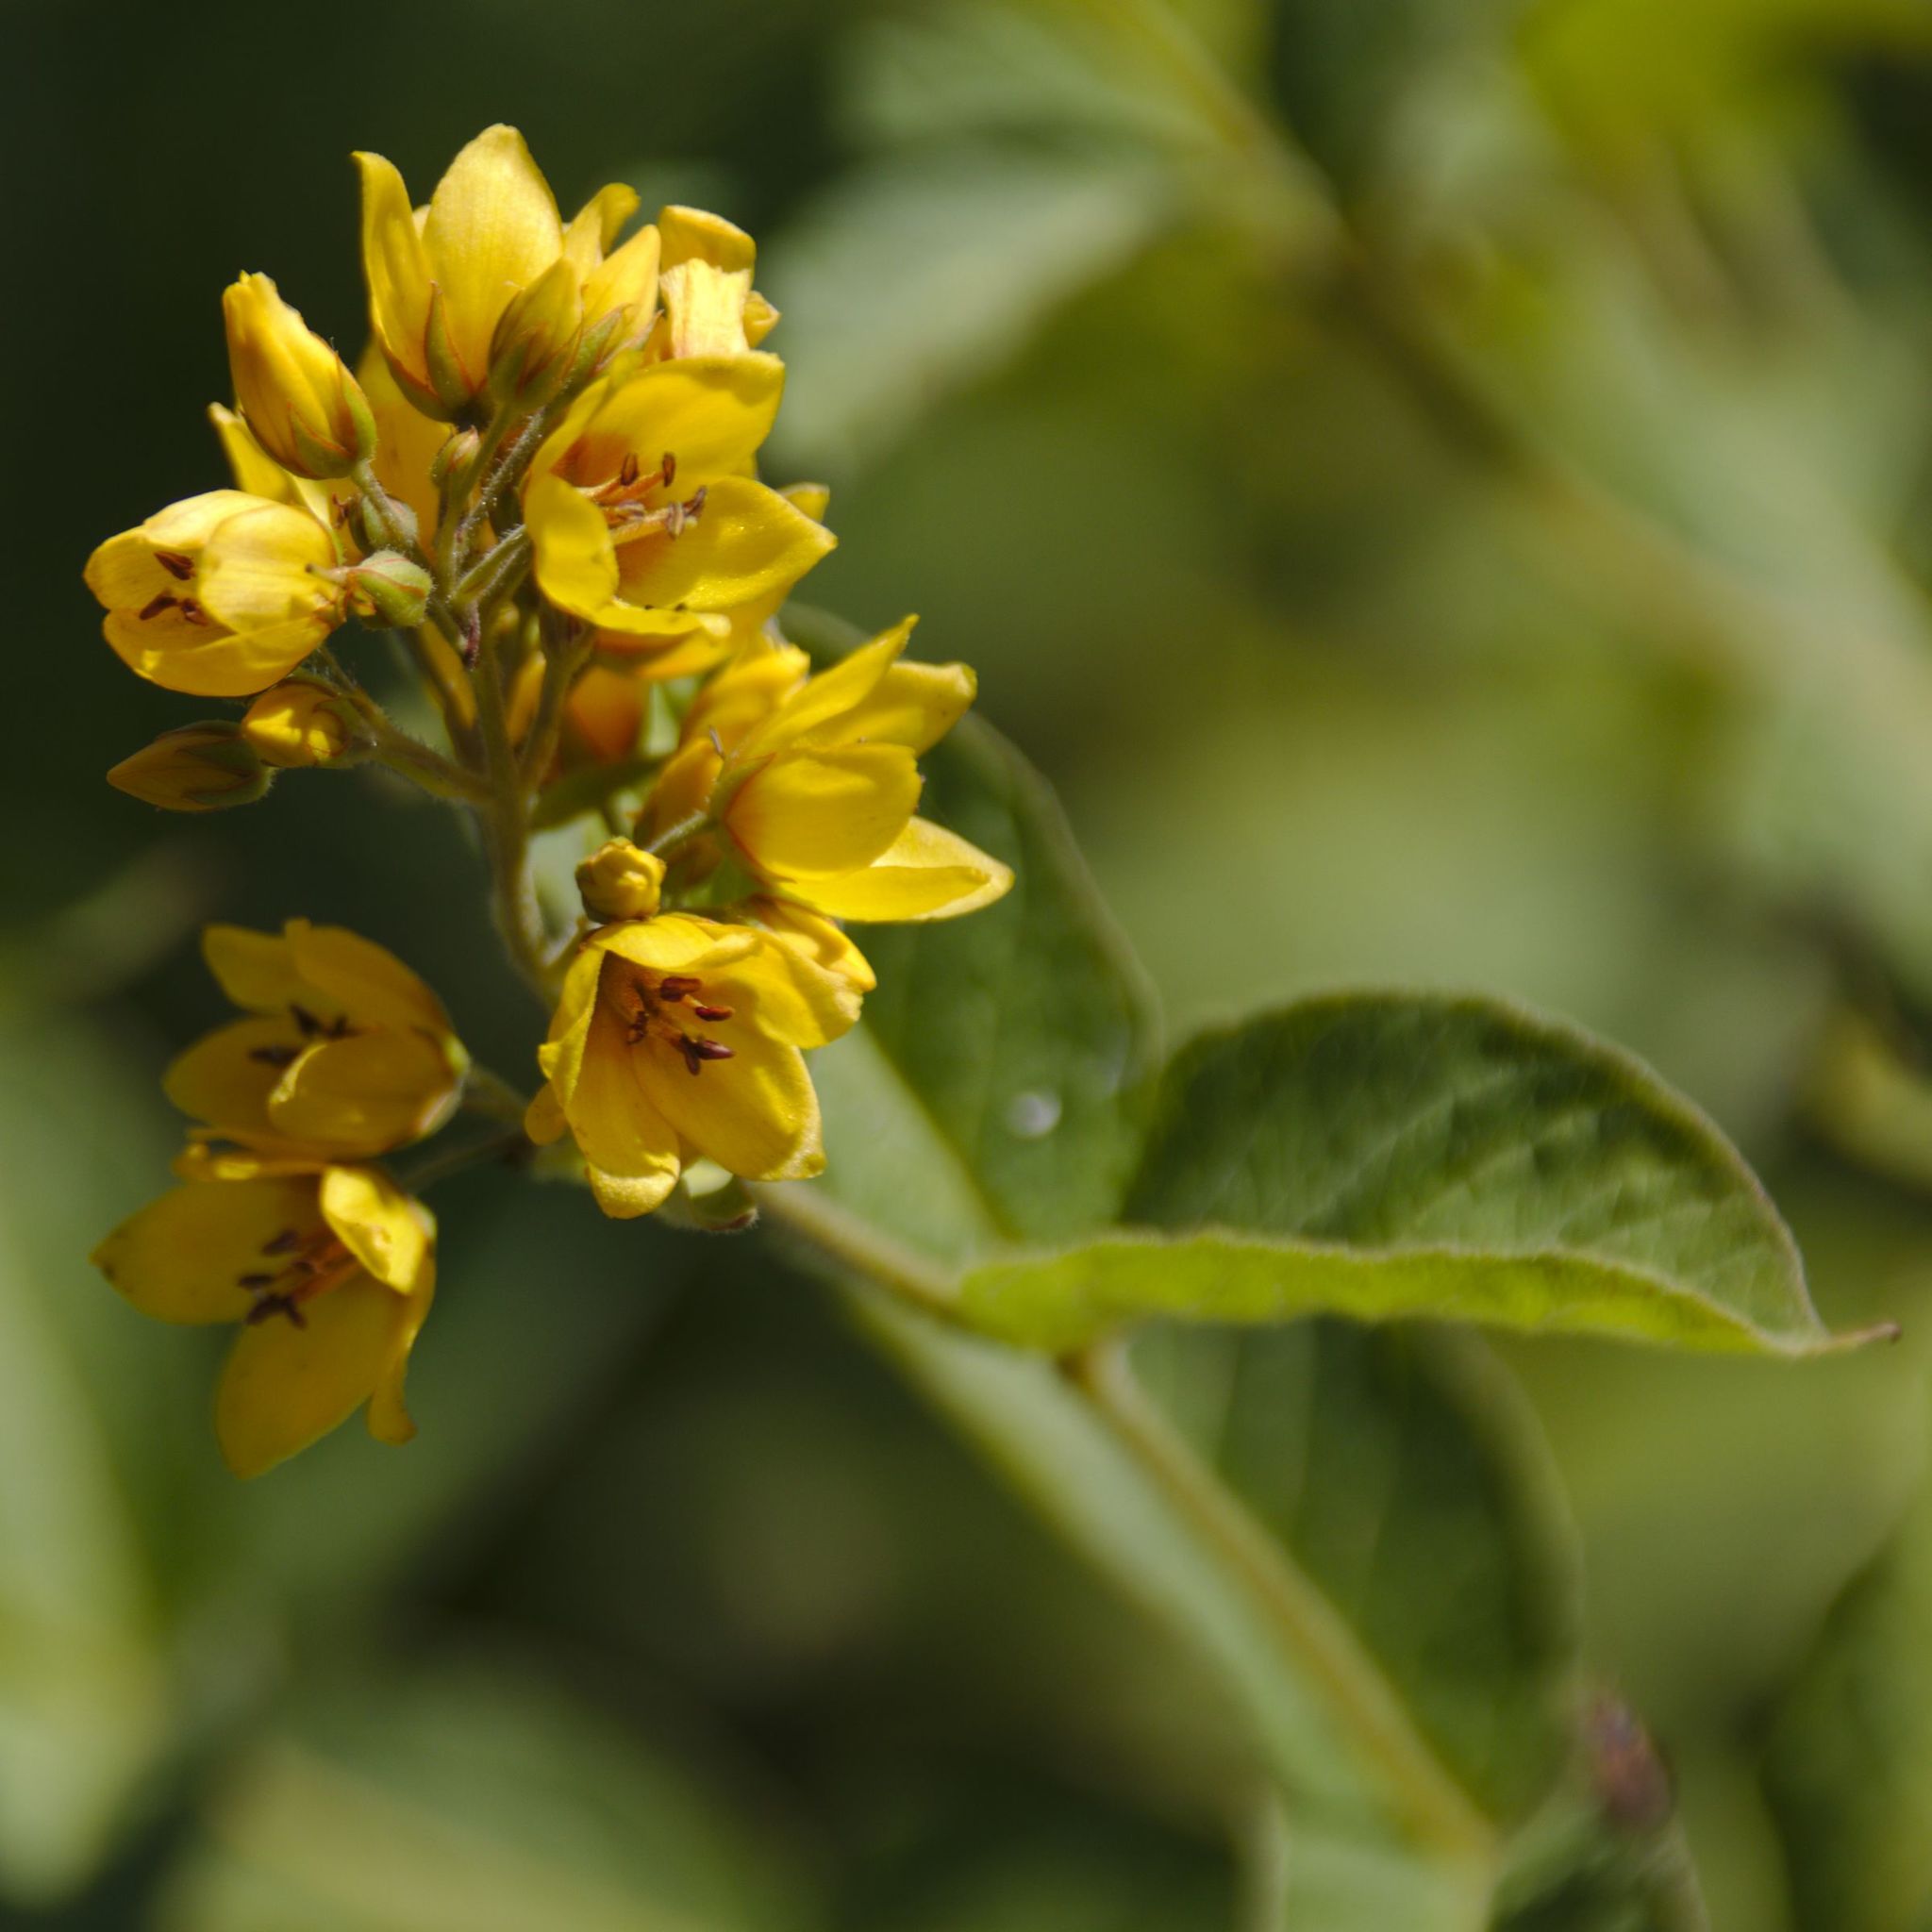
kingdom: Plantae
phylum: Tracheophyta
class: Magnoliopsida
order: Ericales
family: Primulaceae
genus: Lysimachia
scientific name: Lysimachia vulgaris
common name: Yellow loosestrife
